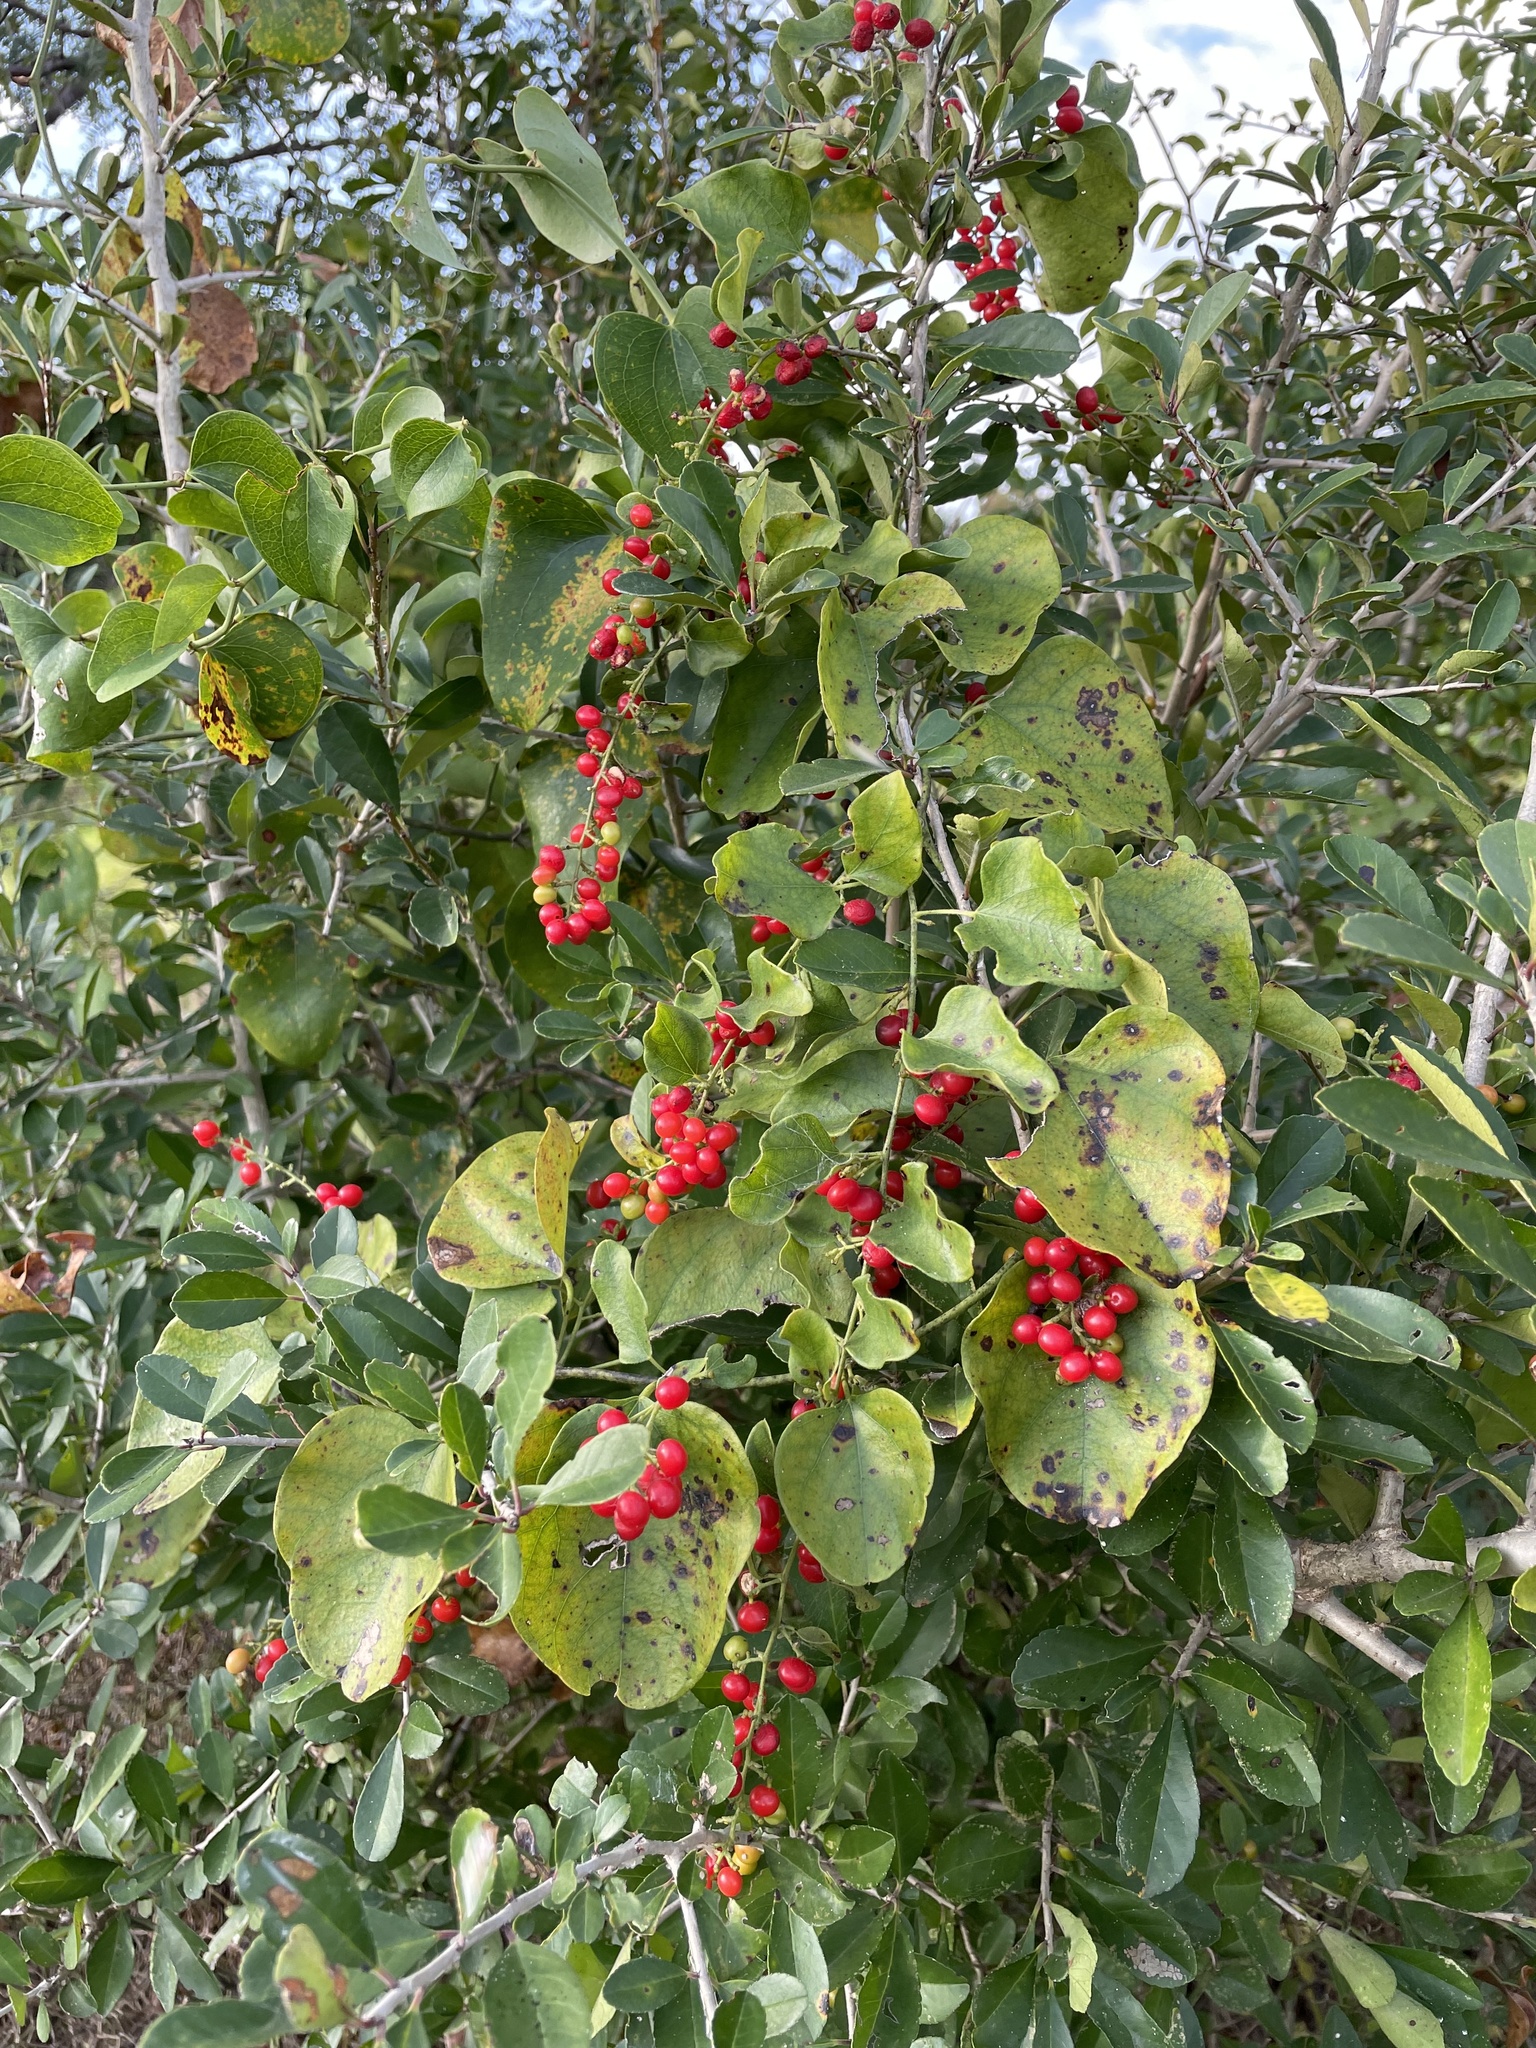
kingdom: Plantae
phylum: Tracheophyta
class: Magnoliopsida
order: Ranunculales
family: Menispermaceae
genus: Cocculus
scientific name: Cocculus carolinus
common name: Carolina moonseed
